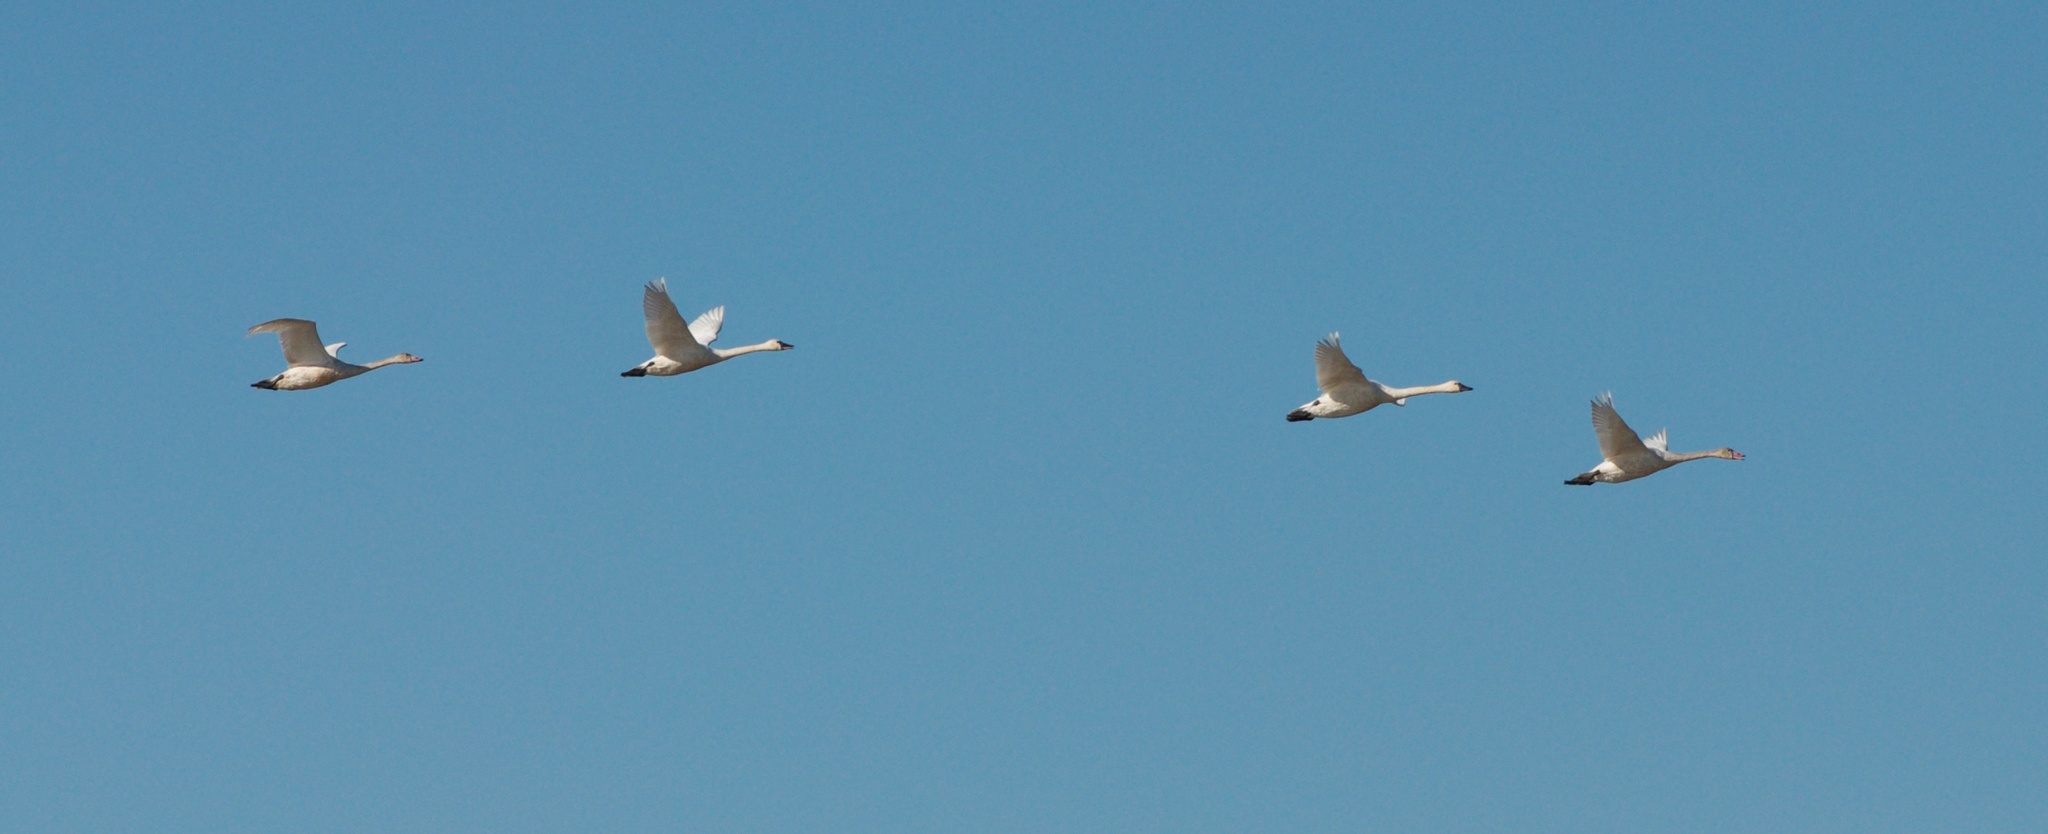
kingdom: Animalia
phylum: Chordata
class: Aves
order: Anseriformes
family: Anatidae
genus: Cygnus
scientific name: Cygnus columbianus
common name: Tundra swan
